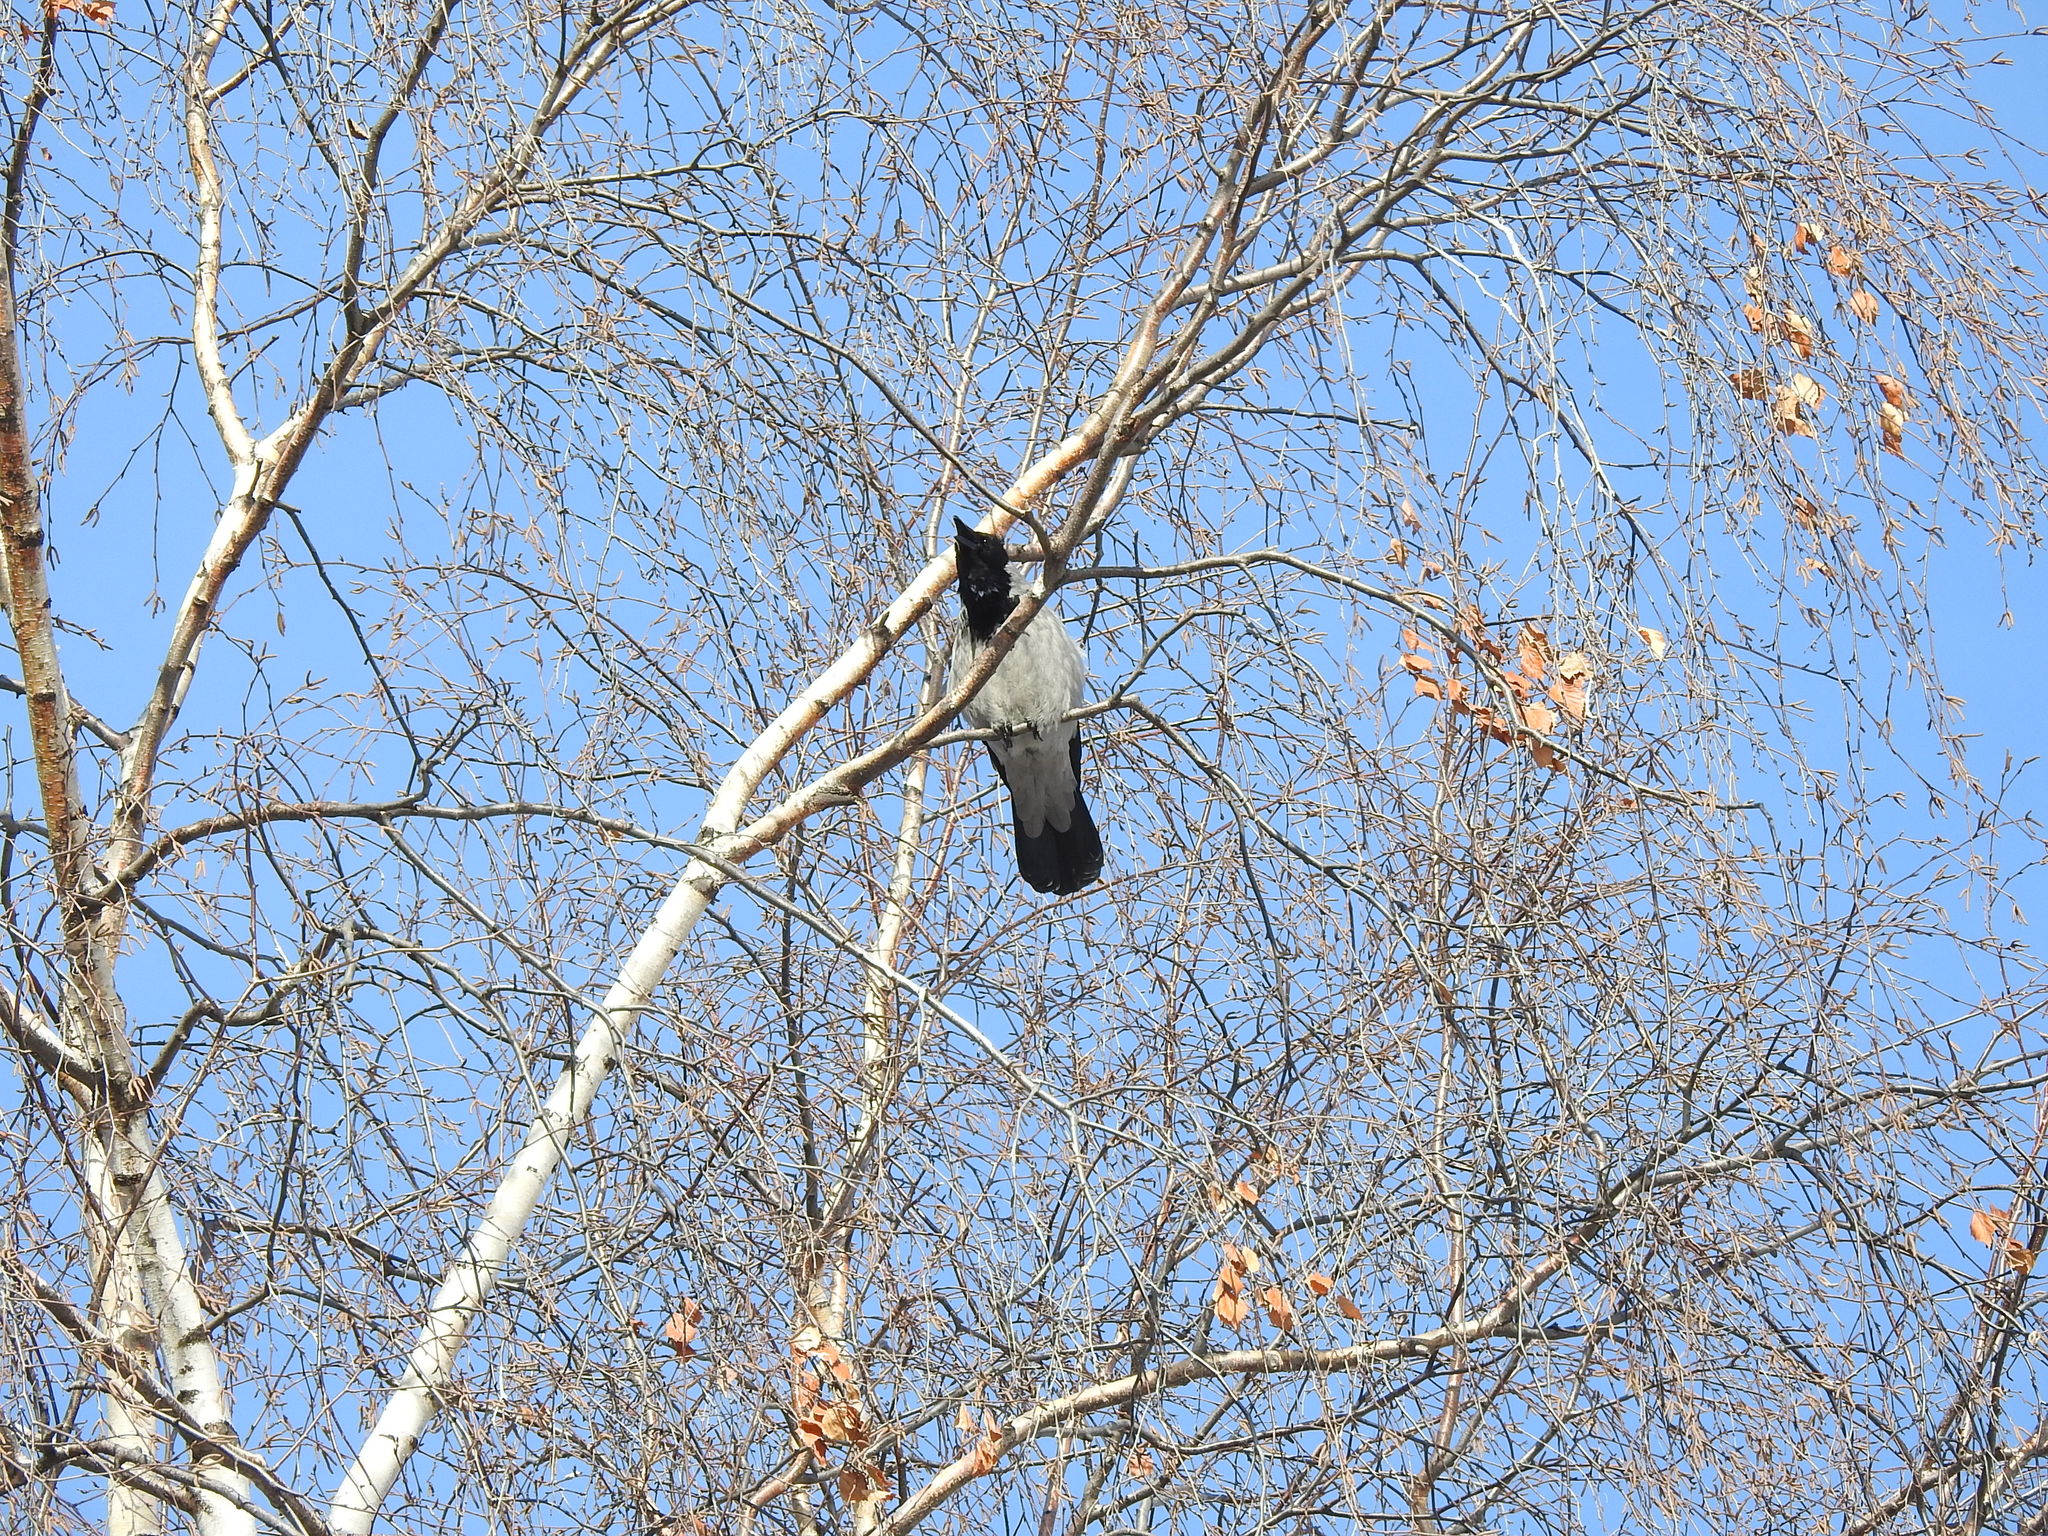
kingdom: Animalia
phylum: Chordata
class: Aves
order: Passeriformes
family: Corvidae
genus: Corvus
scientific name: Corvus cornix
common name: Hooded crow
